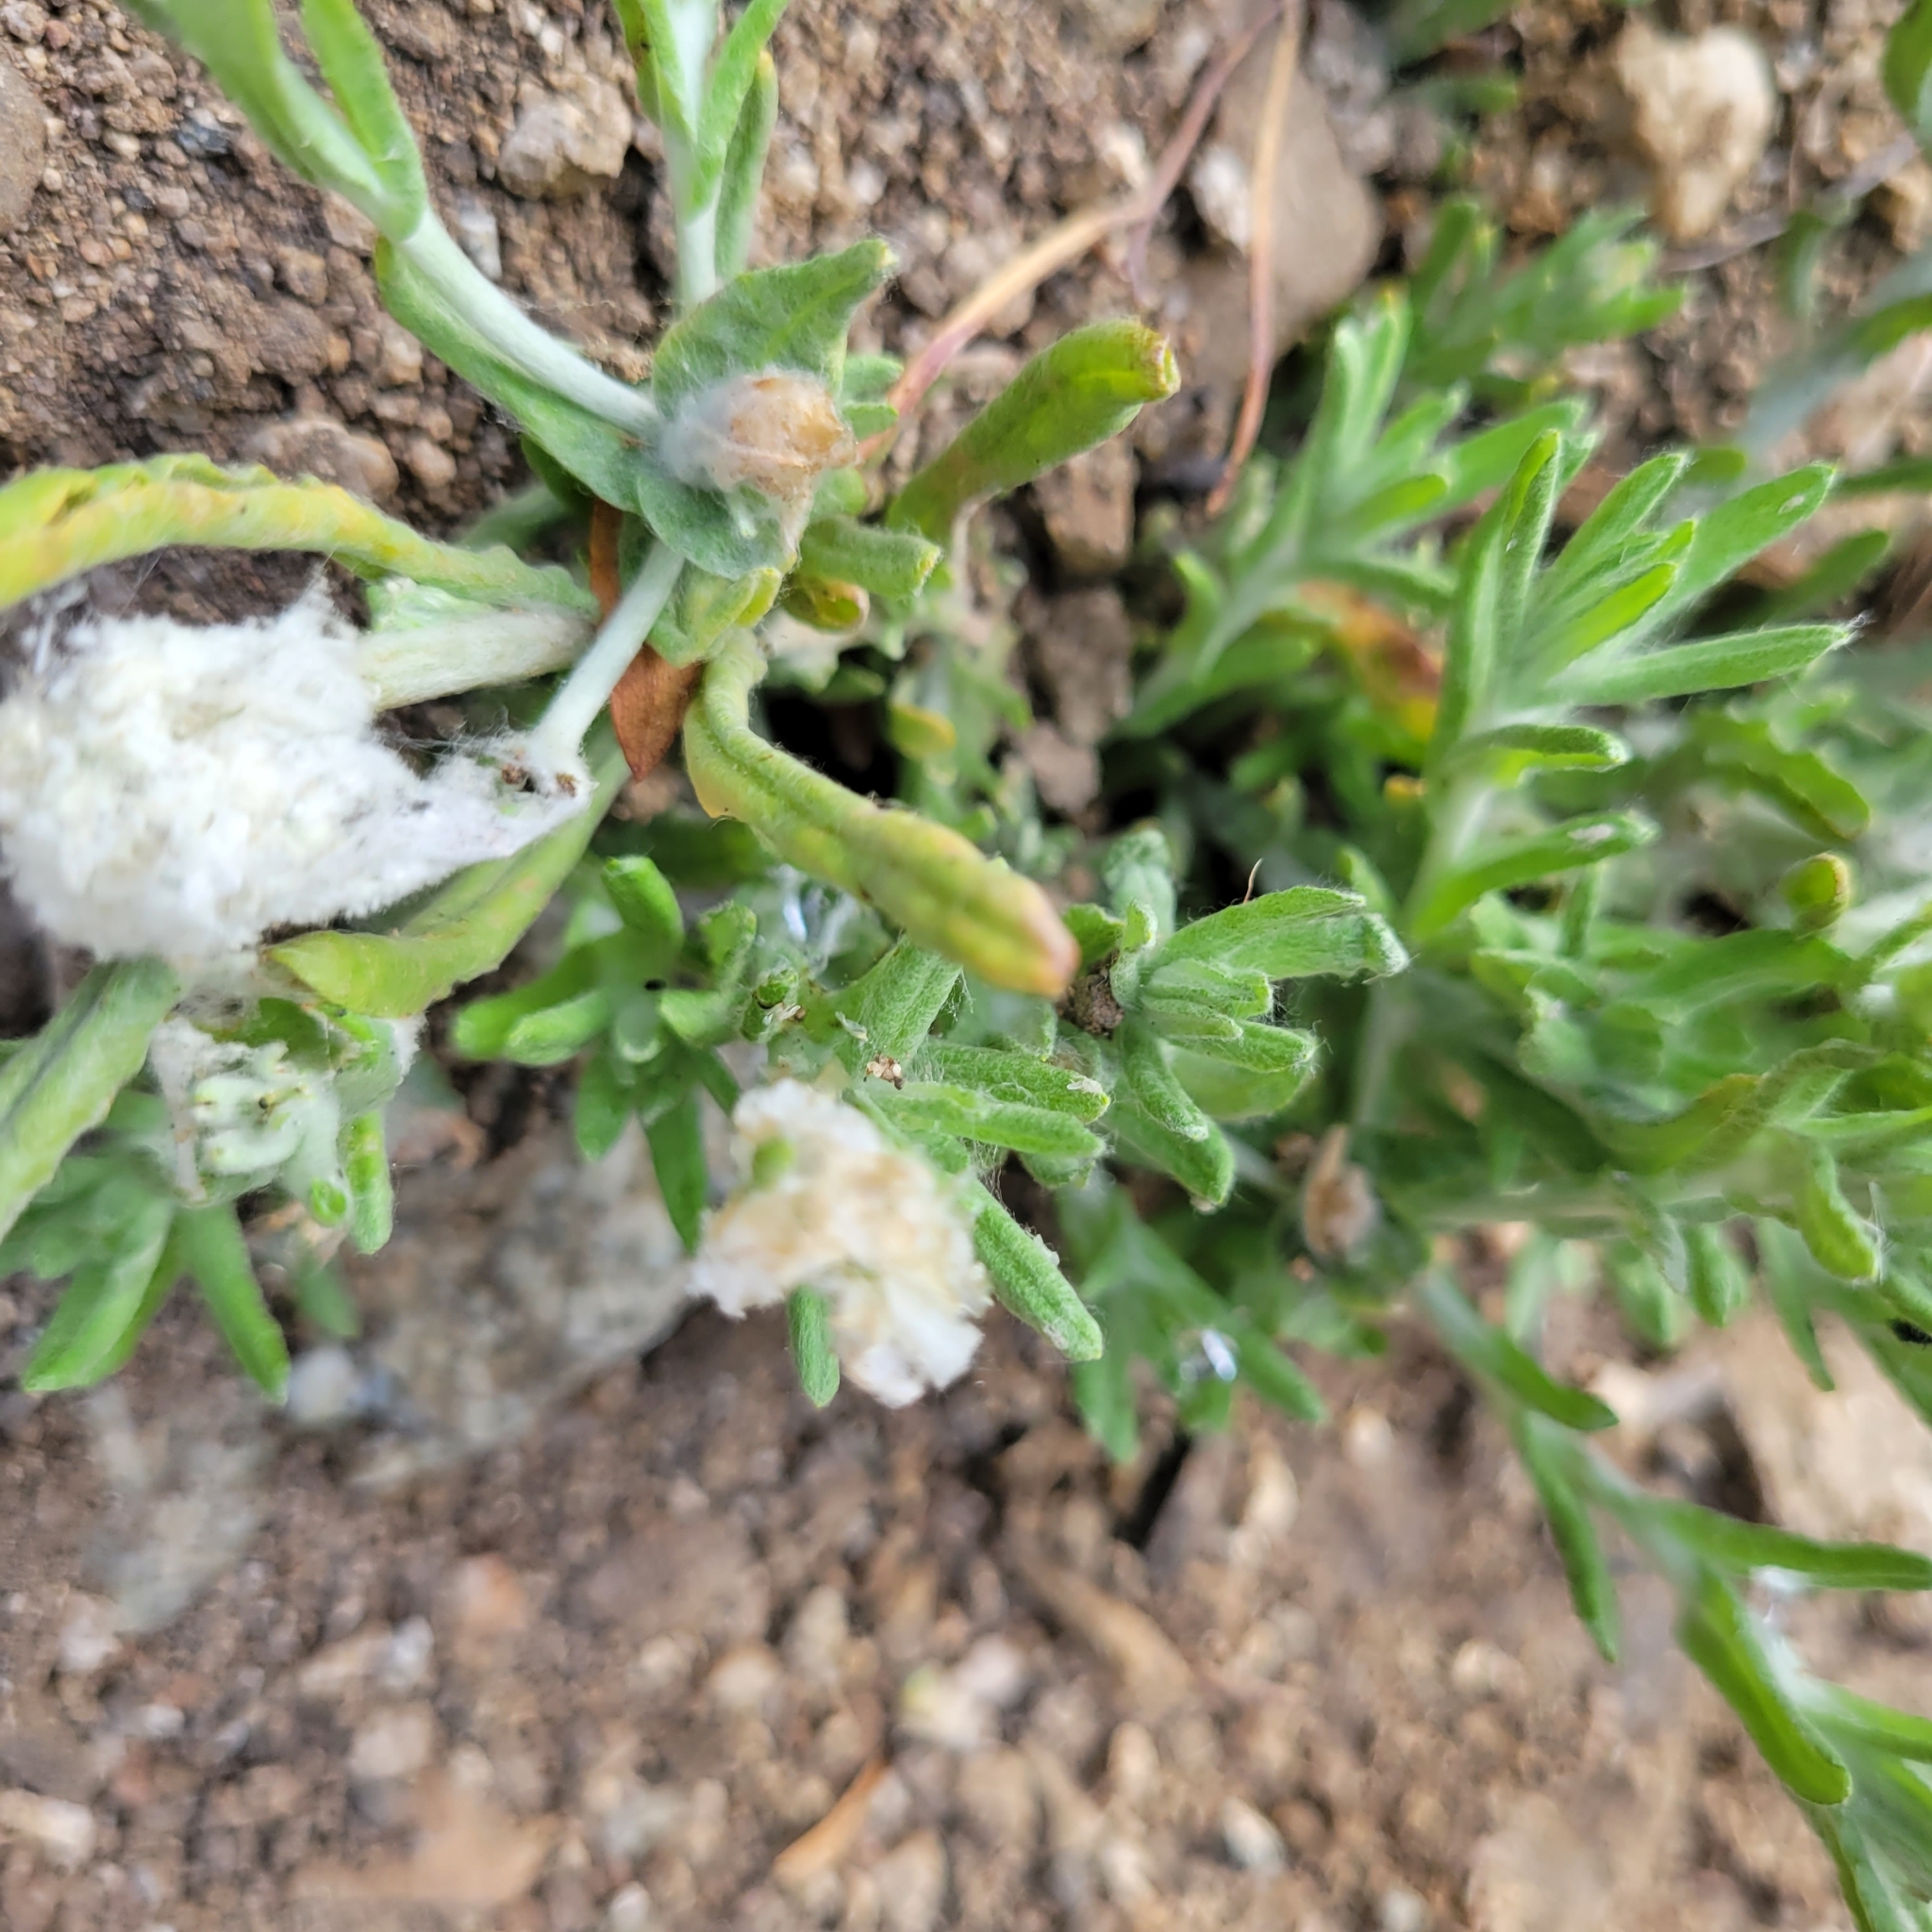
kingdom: Plantae
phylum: Tracheophyta
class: Magnoliopsida
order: Asterales
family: Asteraceae
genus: Helichrysum
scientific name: Helichrysum luteoalbum
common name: Daisy
